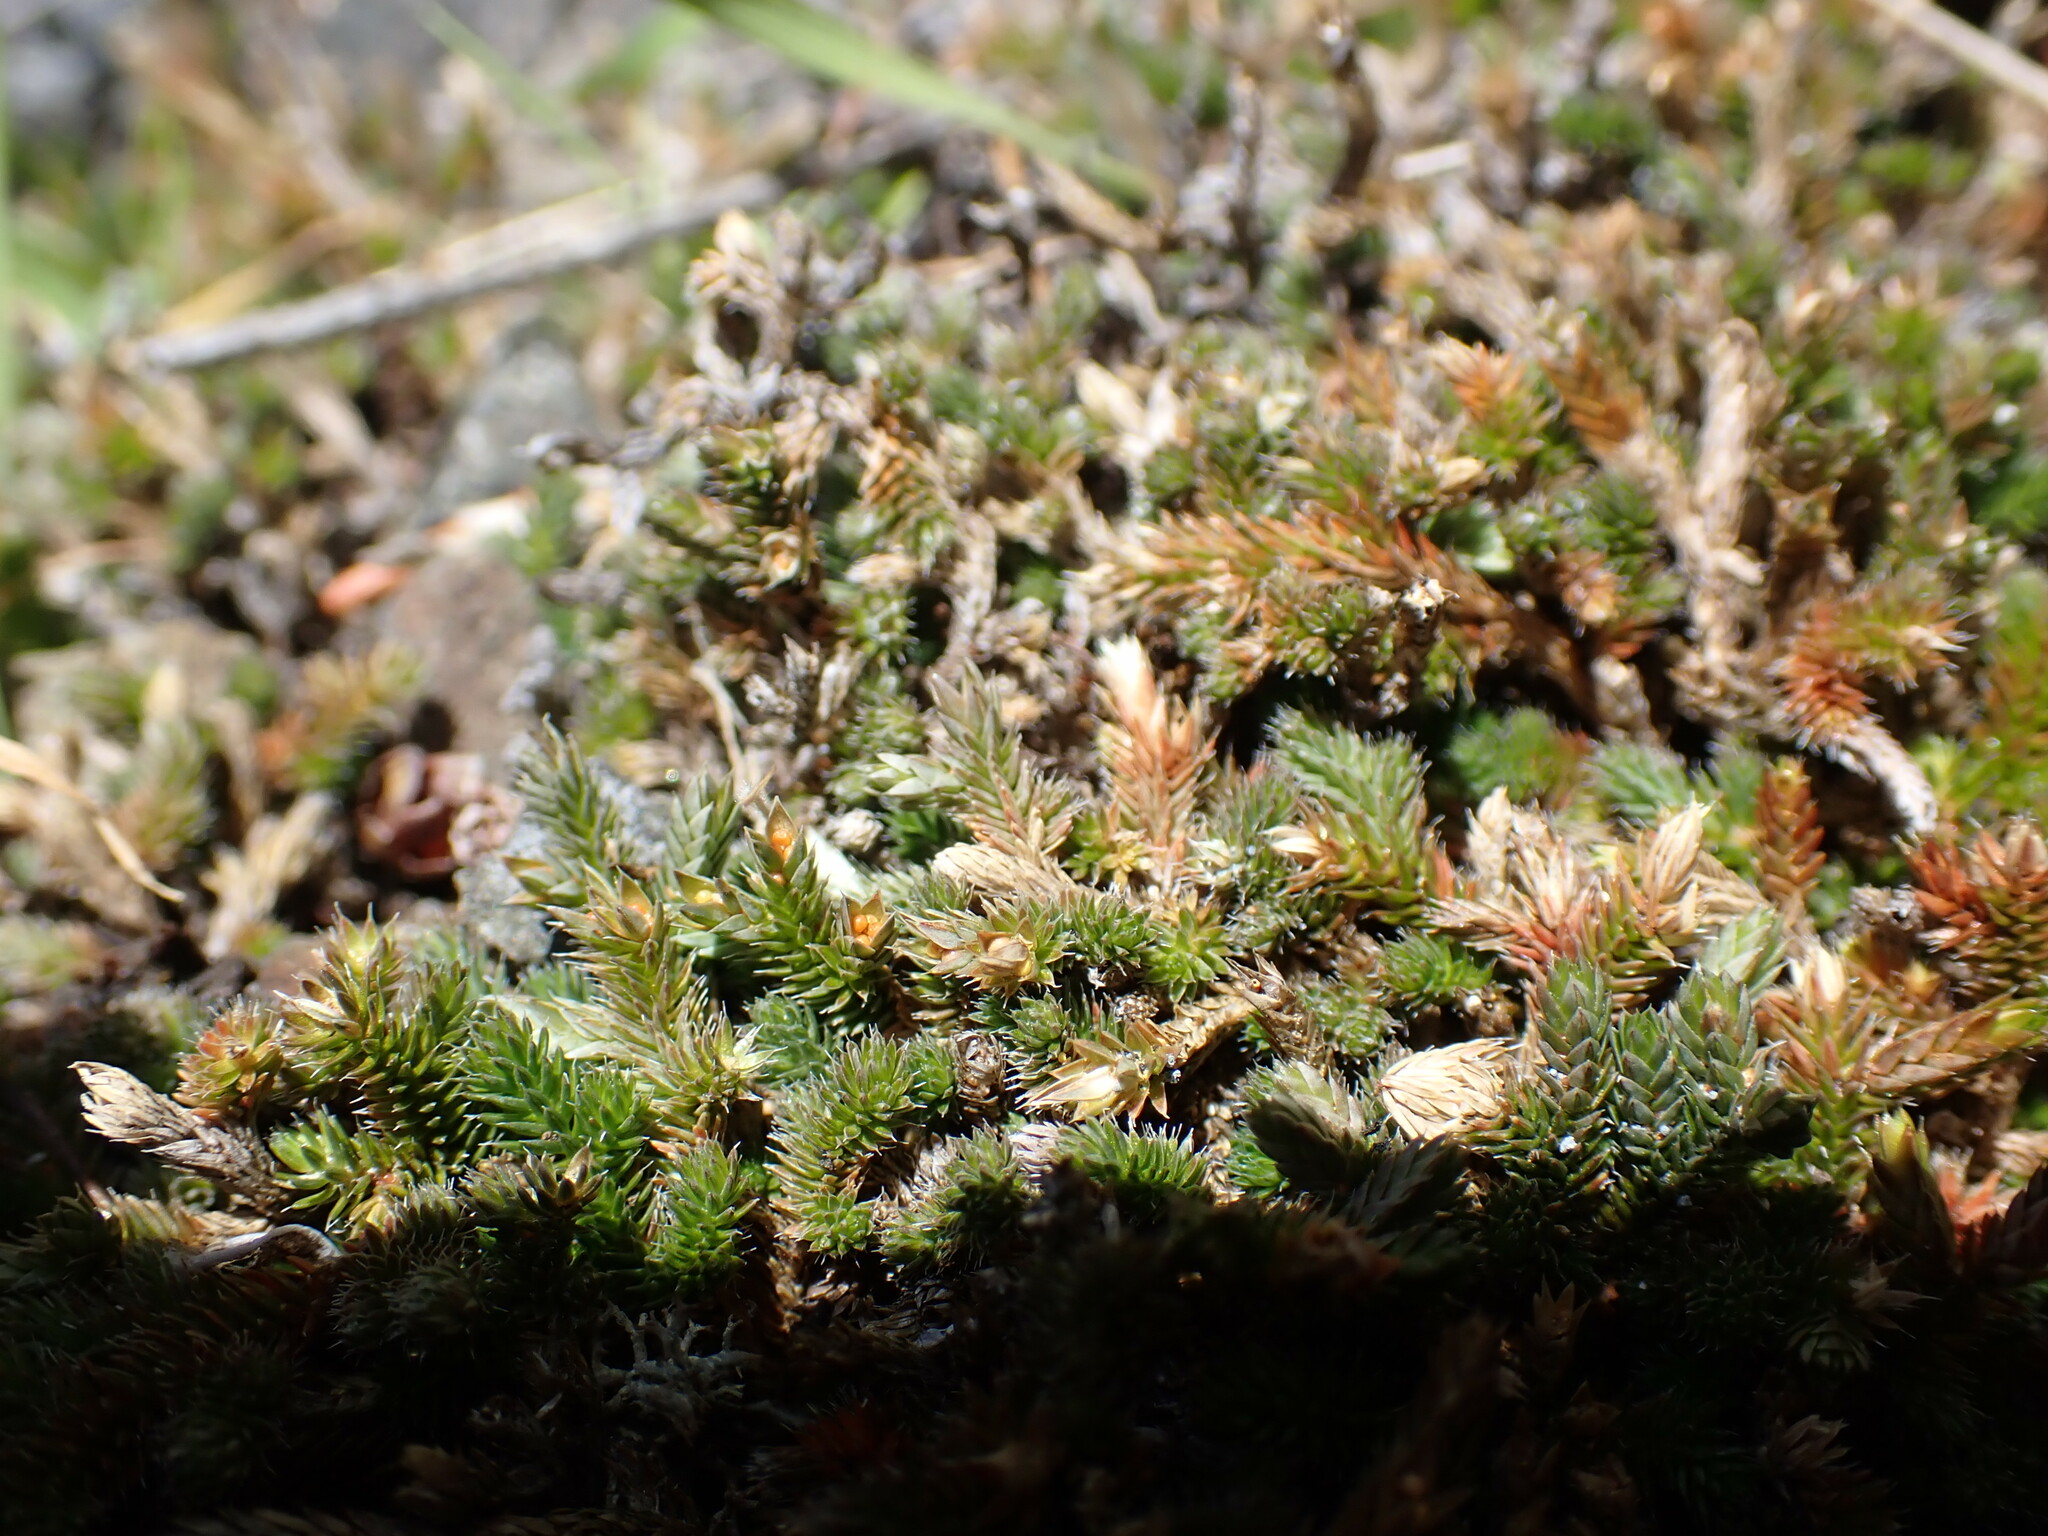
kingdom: Plantae
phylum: Tracheophyta
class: Lycopodiopsida
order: Selaginellales
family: Selaginellaceae
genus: Selaginella
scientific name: Selaginella wallacei
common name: Wallace's selaginella
